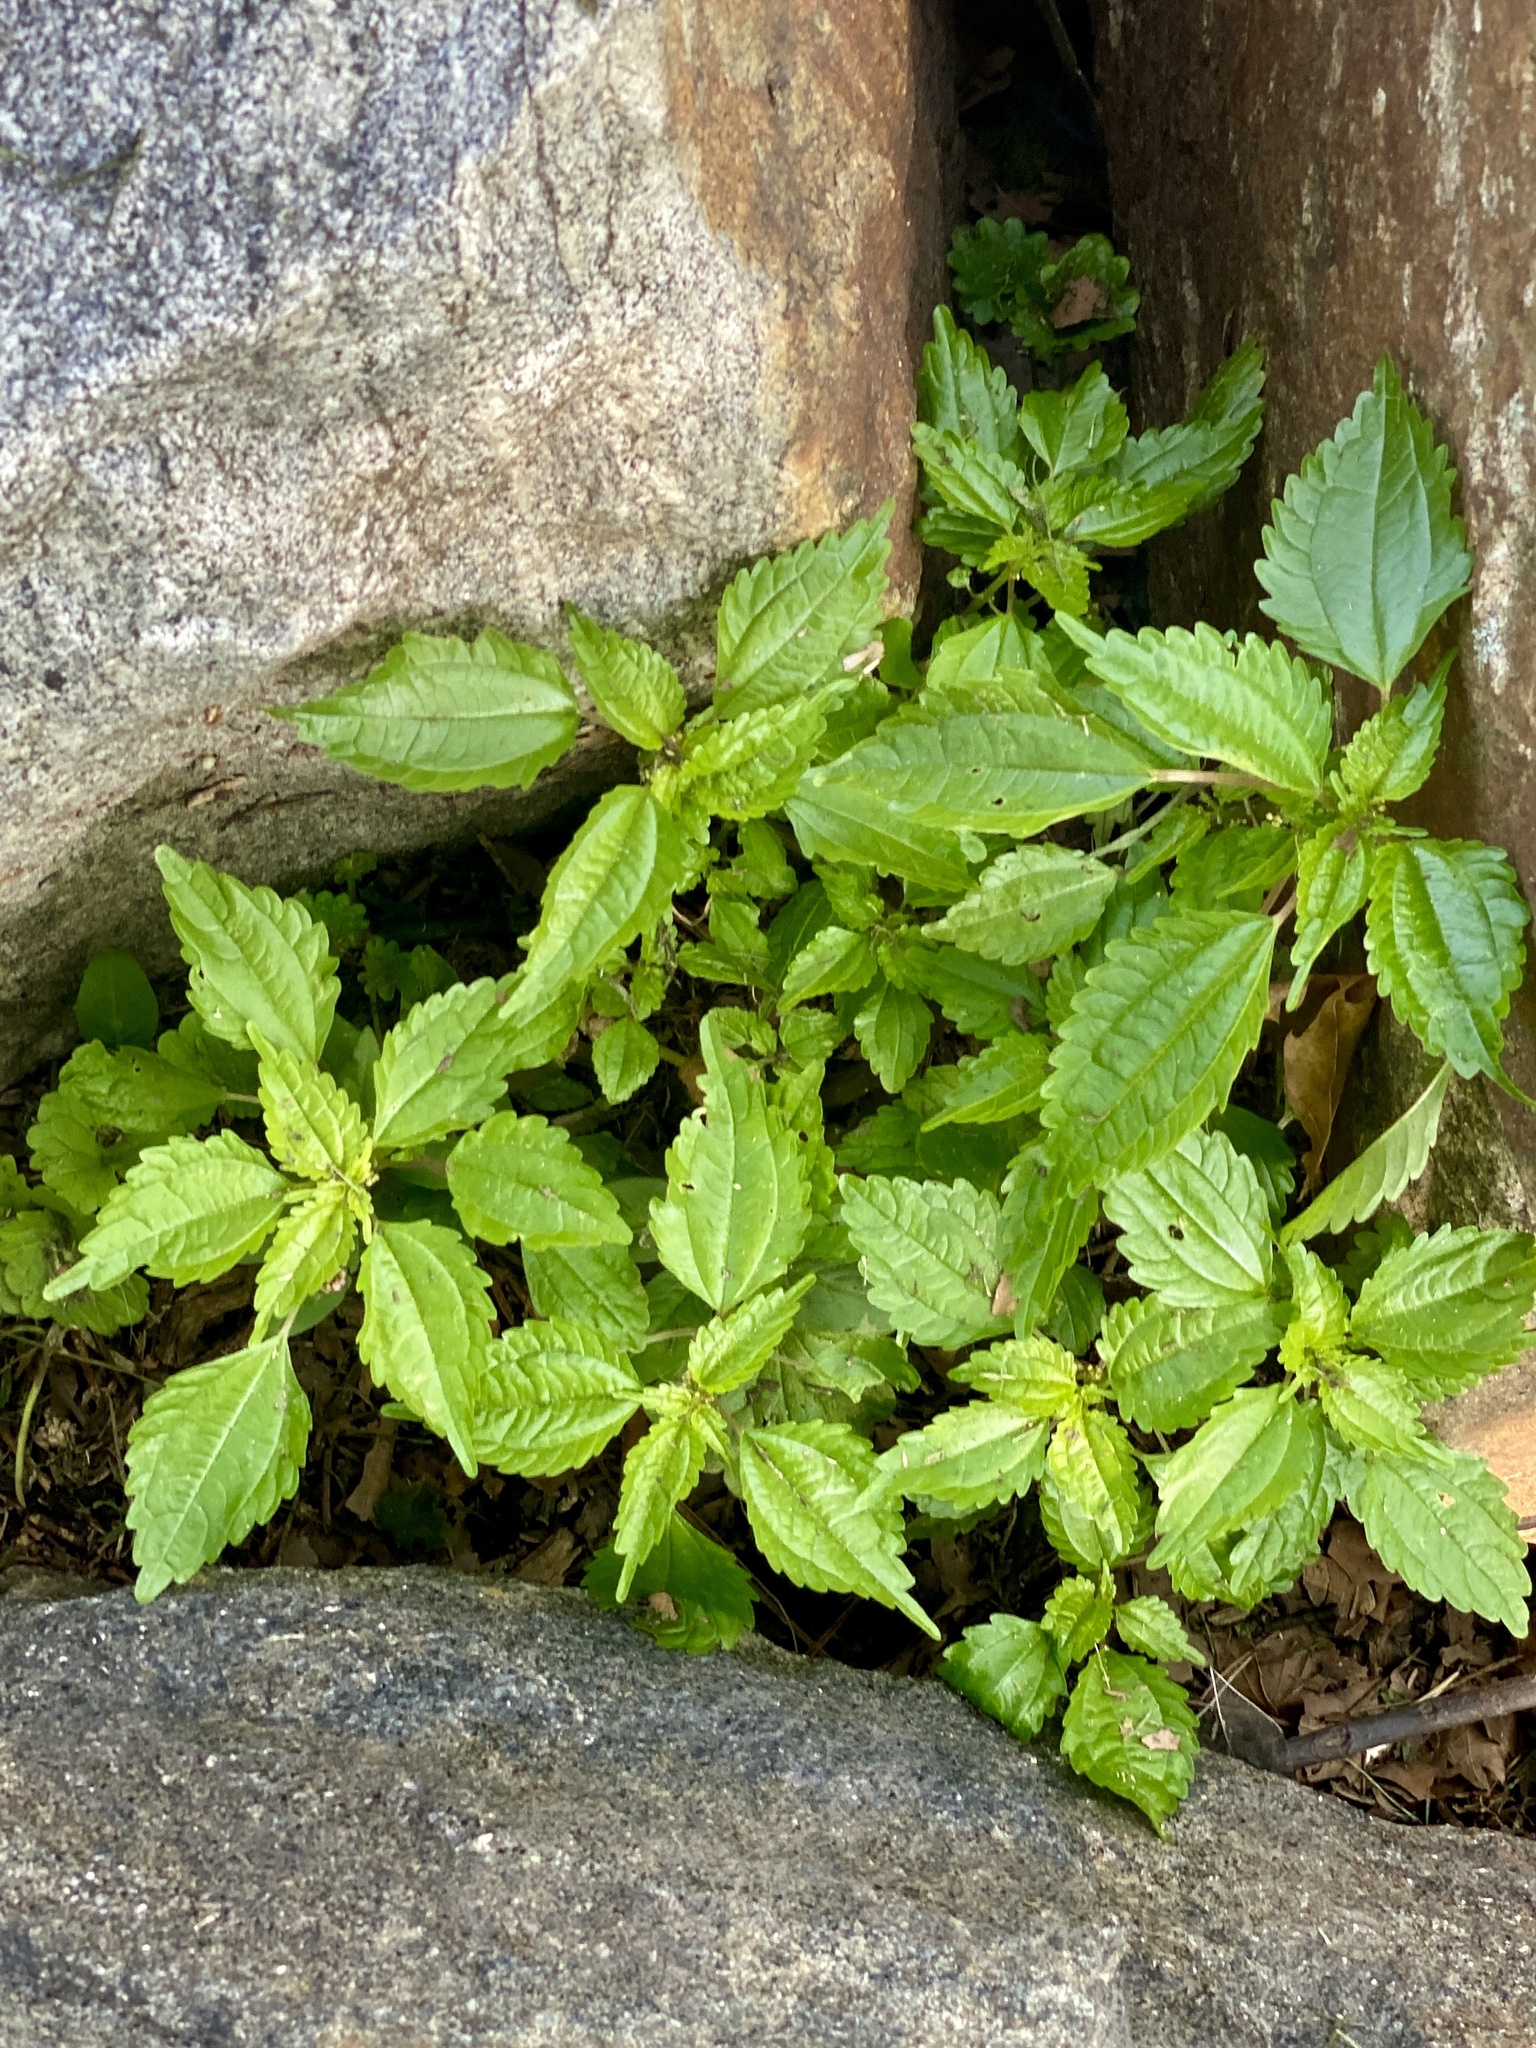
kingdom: Plantae
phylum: Tracheophyta
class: Magnoliopsida
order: Rosales
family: Urticaceae
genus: Pilea
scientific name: Pilea pumila
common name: Clearweed
